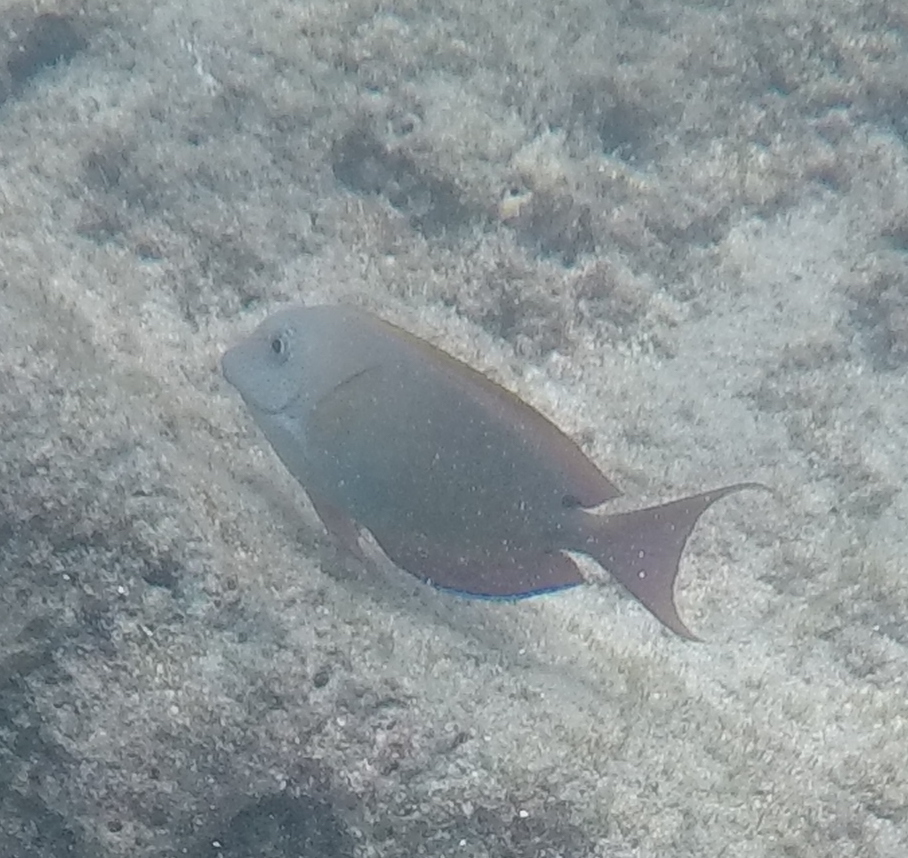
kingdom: Animalia
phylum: Chordata
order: Perciformes
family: Acanthuridae
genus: Acanthurus
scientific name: Acanthurus nigrofuscus
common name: Blackspot surgeonfish
